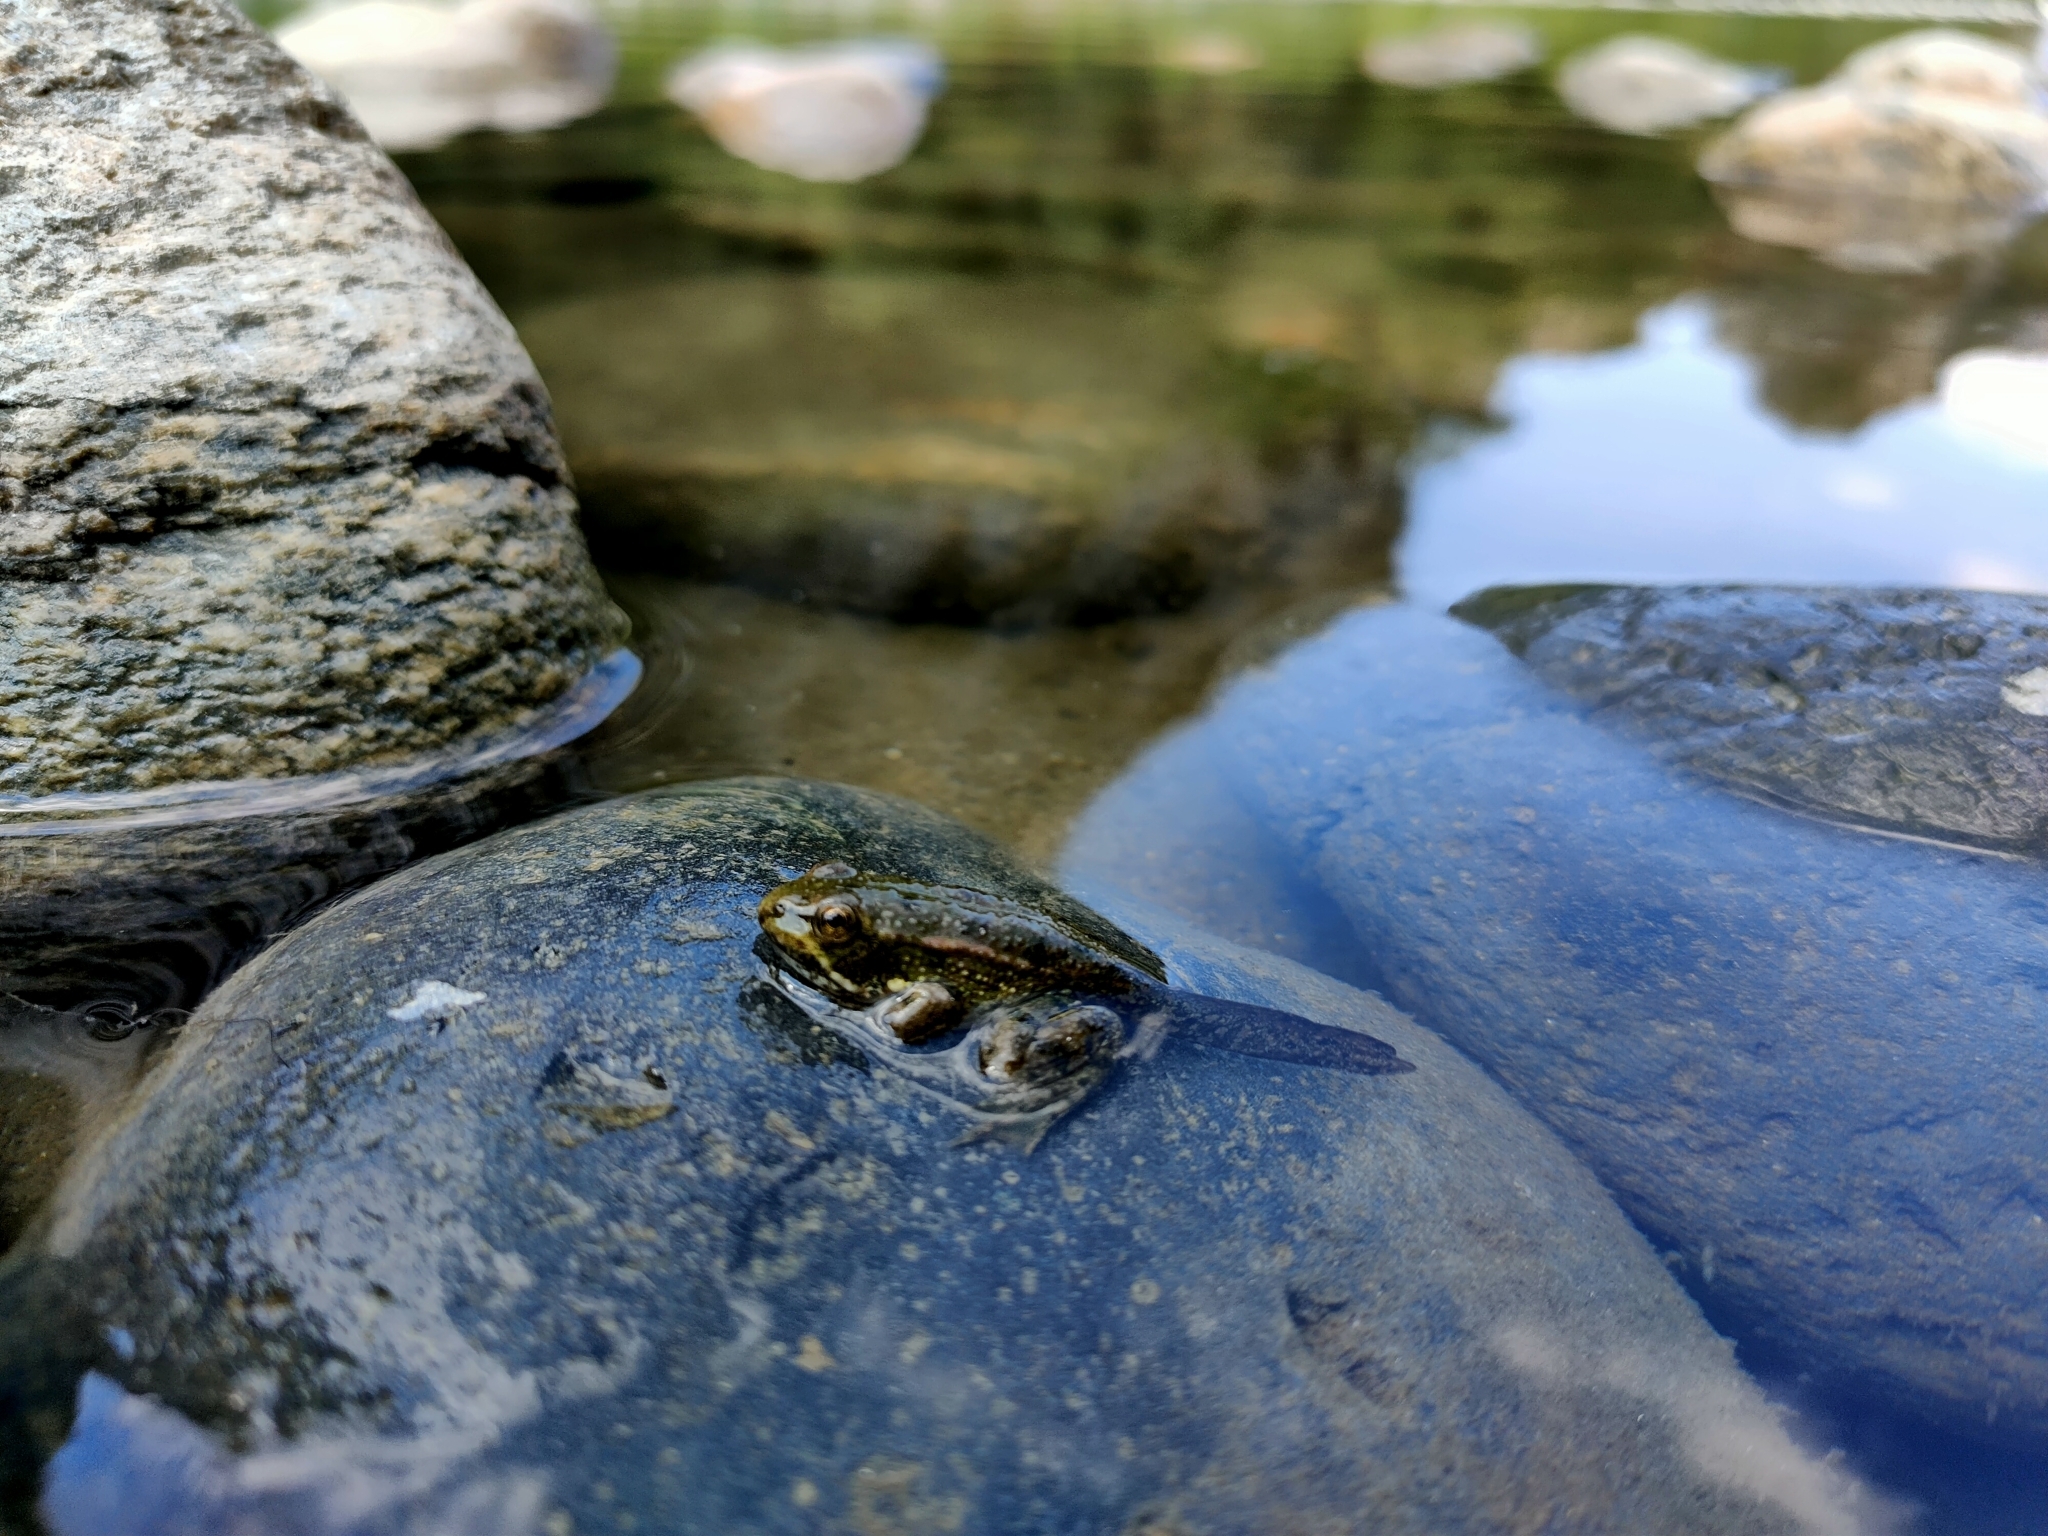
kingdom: Animalia
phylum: Chordata
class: Amphibia
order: Anura
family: Ranidae
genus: Pelophylax
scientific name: Pelophylax
